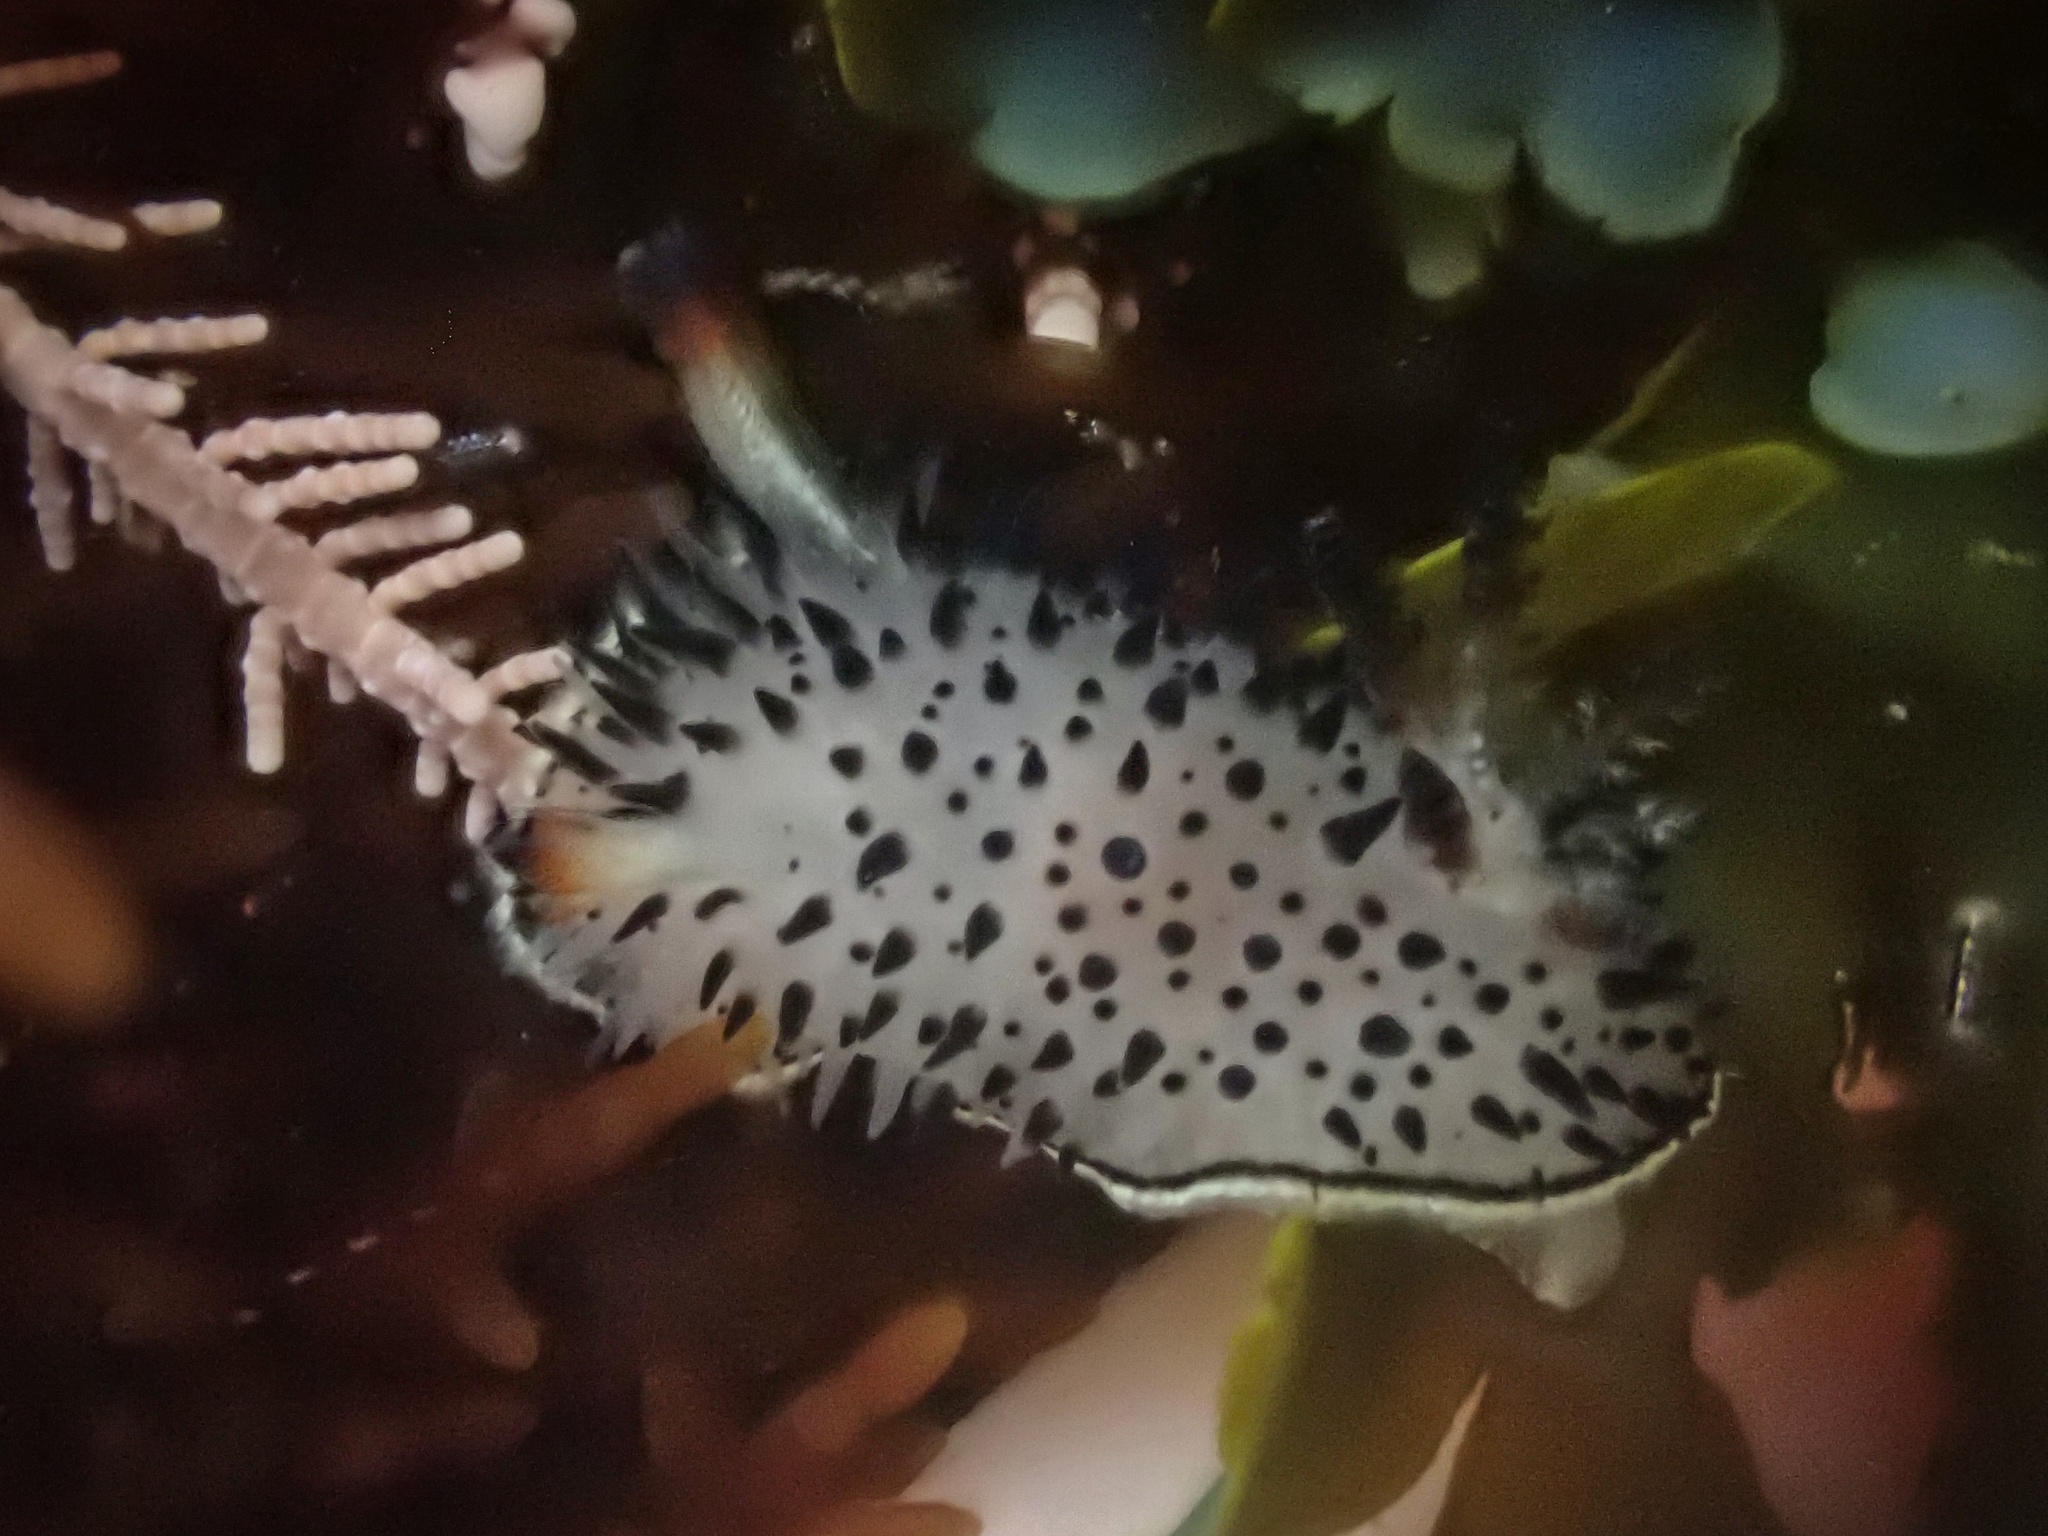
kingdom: Animalia
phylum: Mollusca
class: Gastropoda
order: Nudibranchia
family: Onchidorididae
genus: Acanthodoris
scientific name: Acanthodoris rhodoceras
